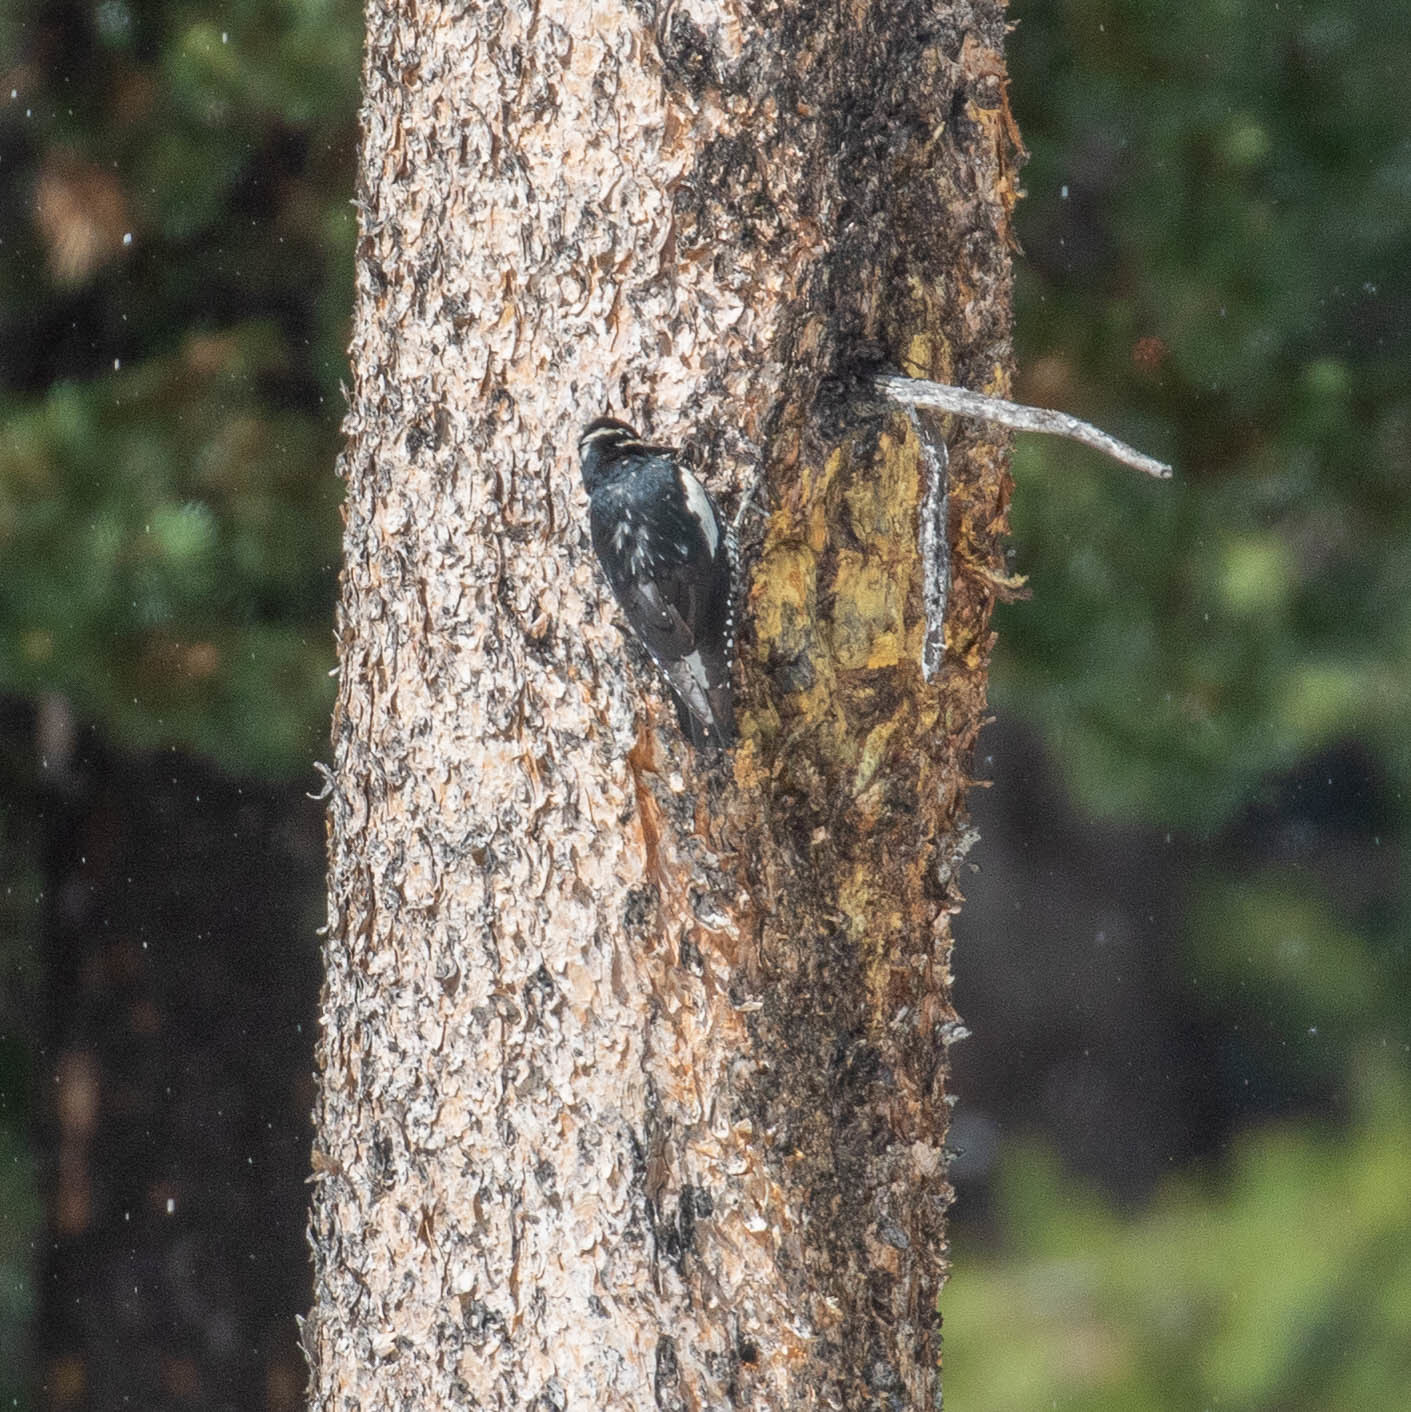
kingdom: Animalia
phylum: Chordata
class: Aves
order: Piciformes
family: Picidae
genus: Sphyrapicus
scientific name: Sphyrapicus thyroideus
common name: Williamson's sapsucker
